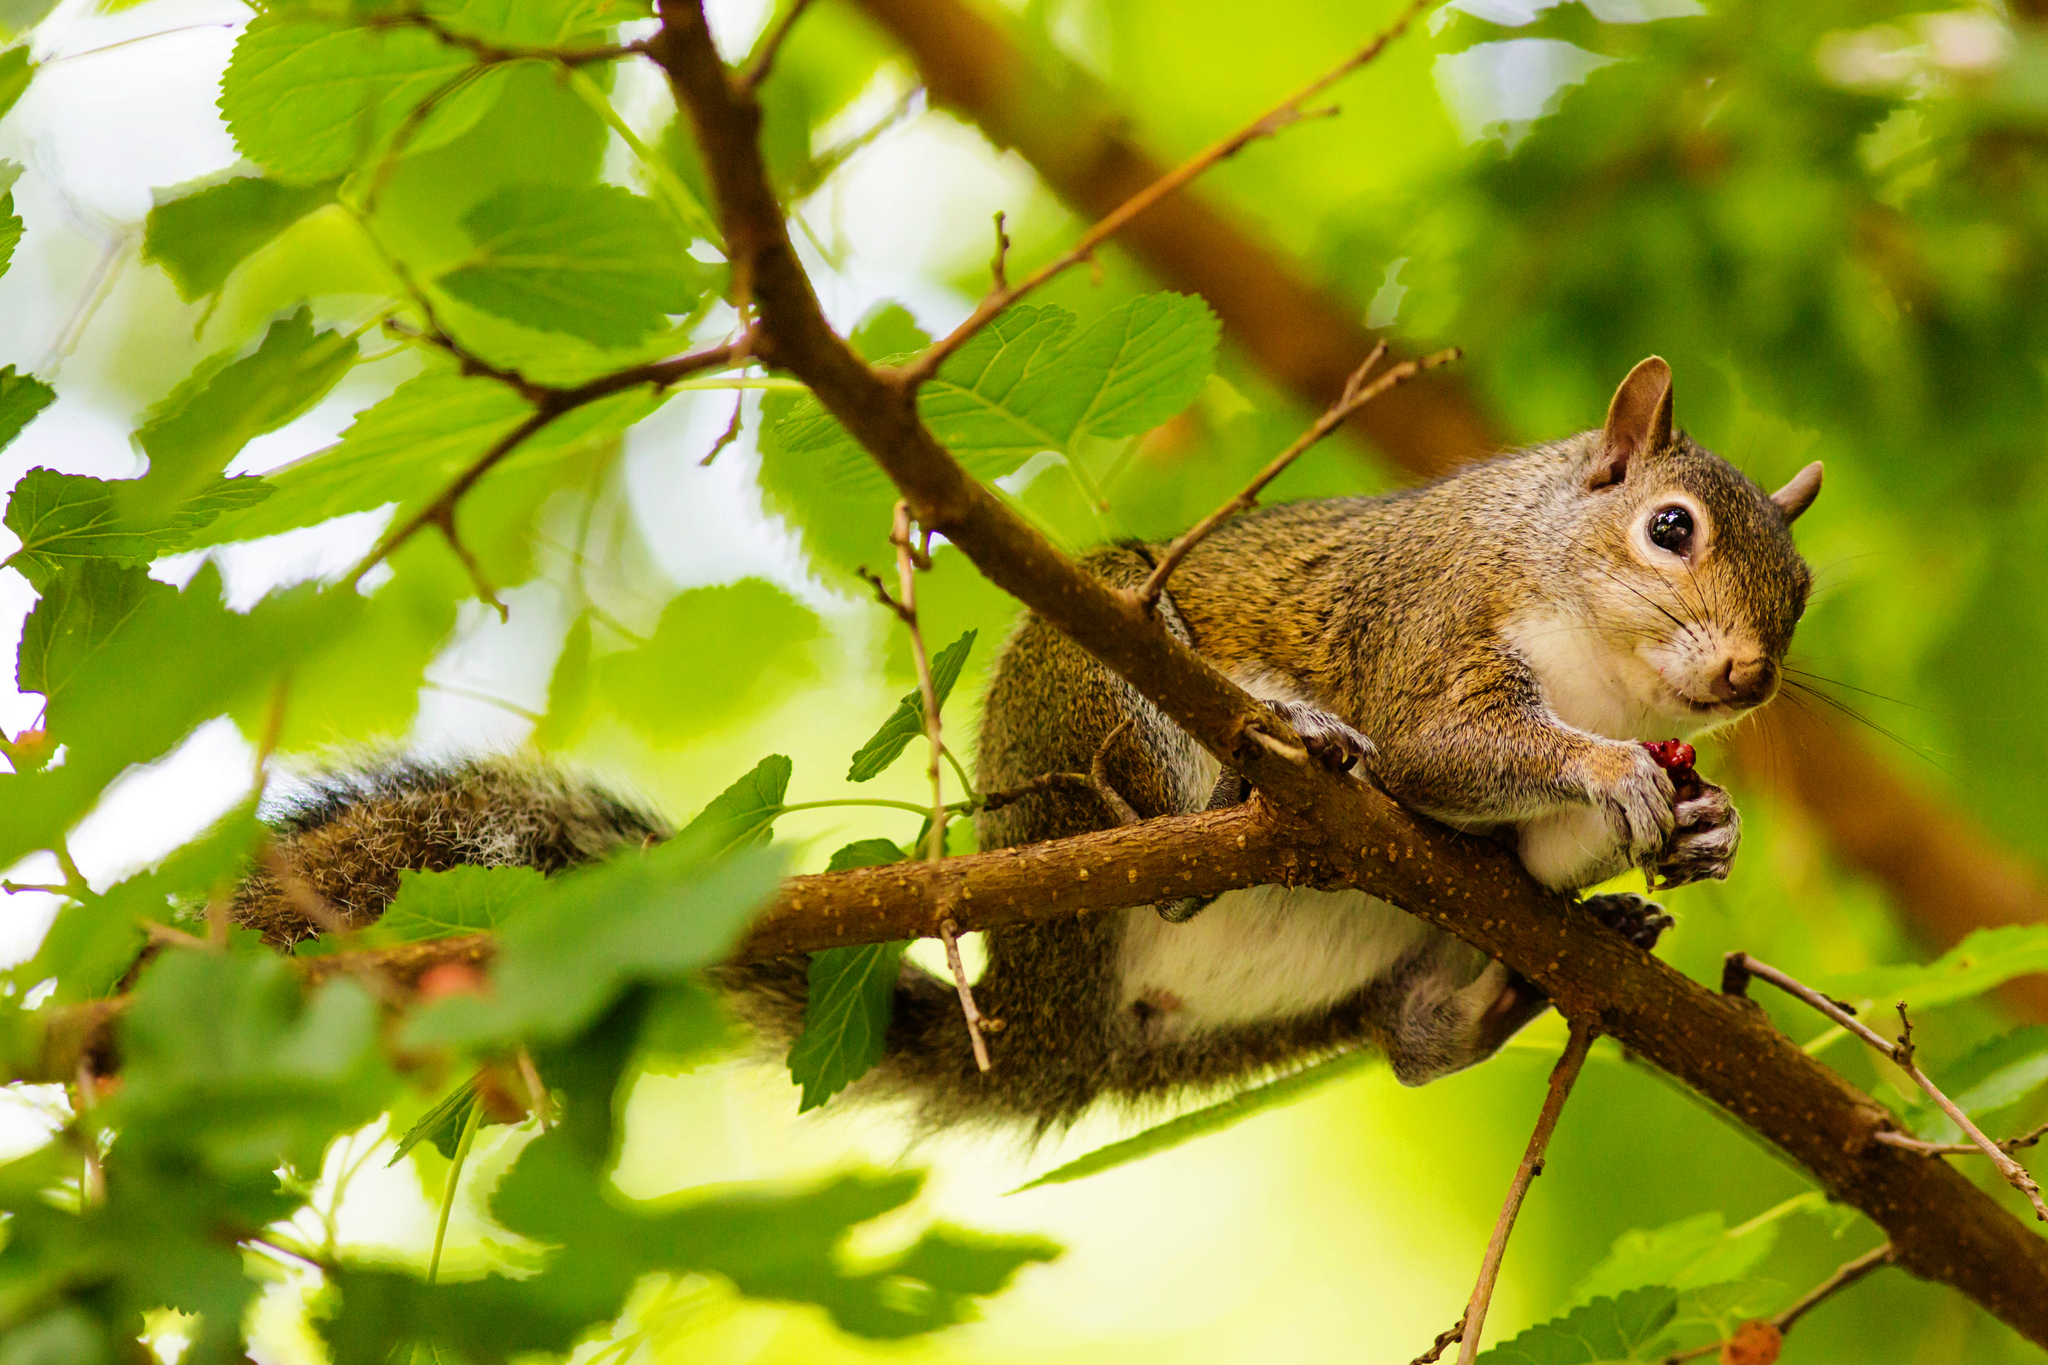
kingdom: Animalia
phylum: Chordata
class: Mammalia
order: Rodentia
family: Sciuridae
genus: Sciurus
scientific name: Sciurus carolinensis
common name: Eastern gray squirrel
